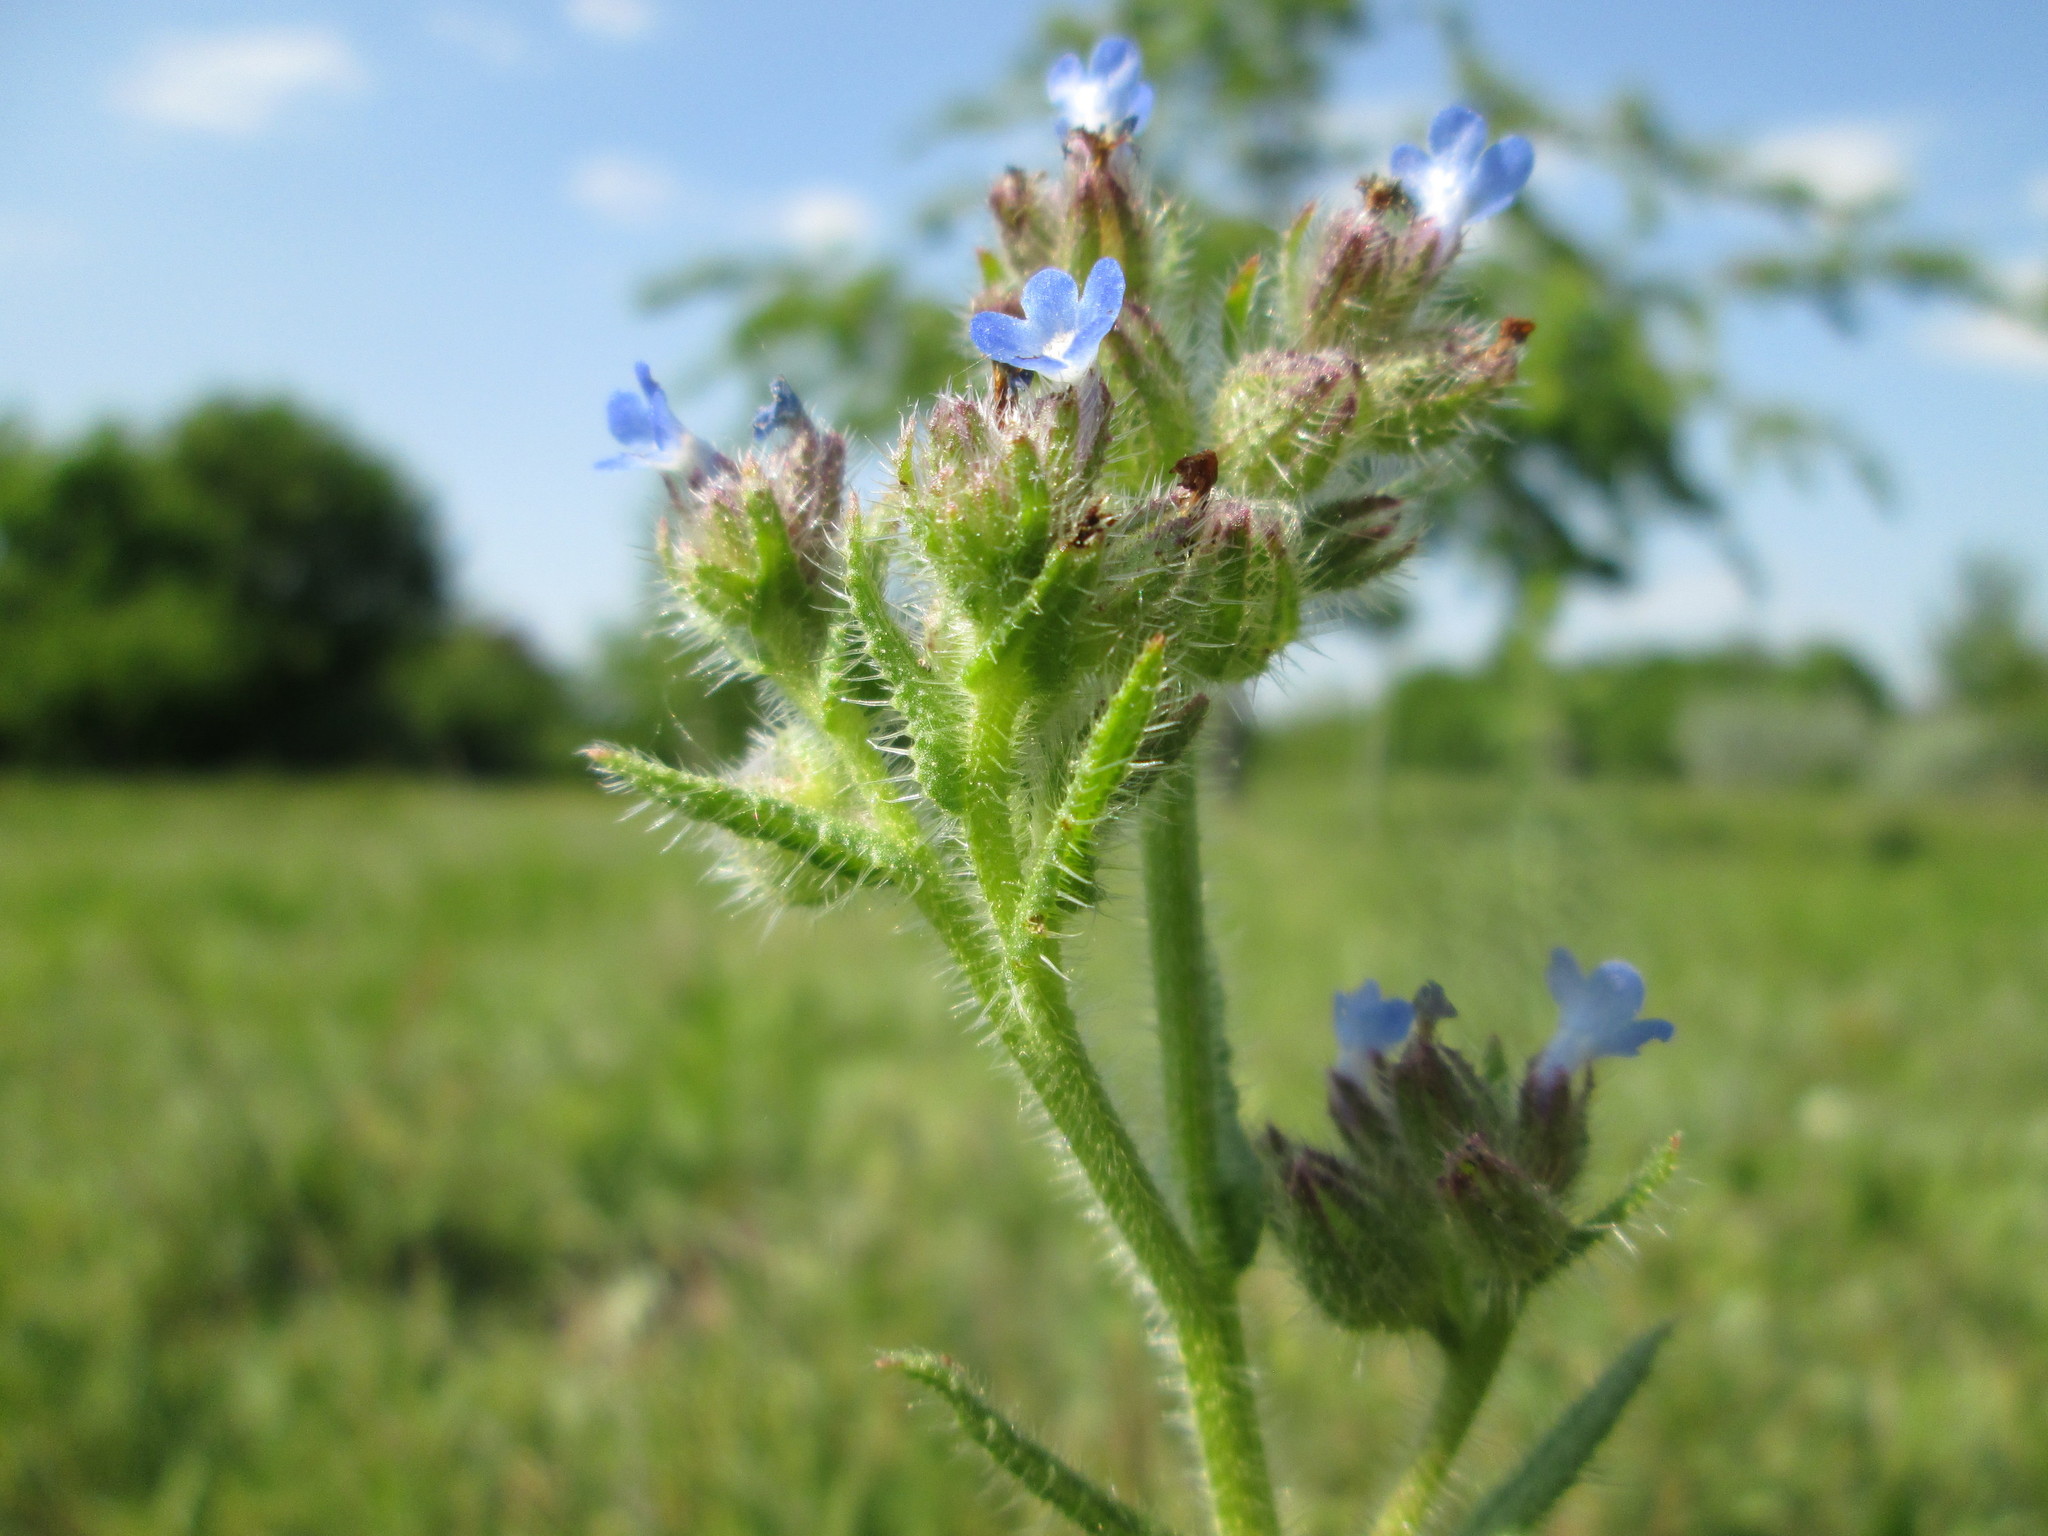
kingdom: Plantae
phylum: Tracheophyta
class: Magnoliopsida
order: Boraginales
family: Boraginaceae
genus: Lycopsis
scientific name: Lycopsis arvensis
